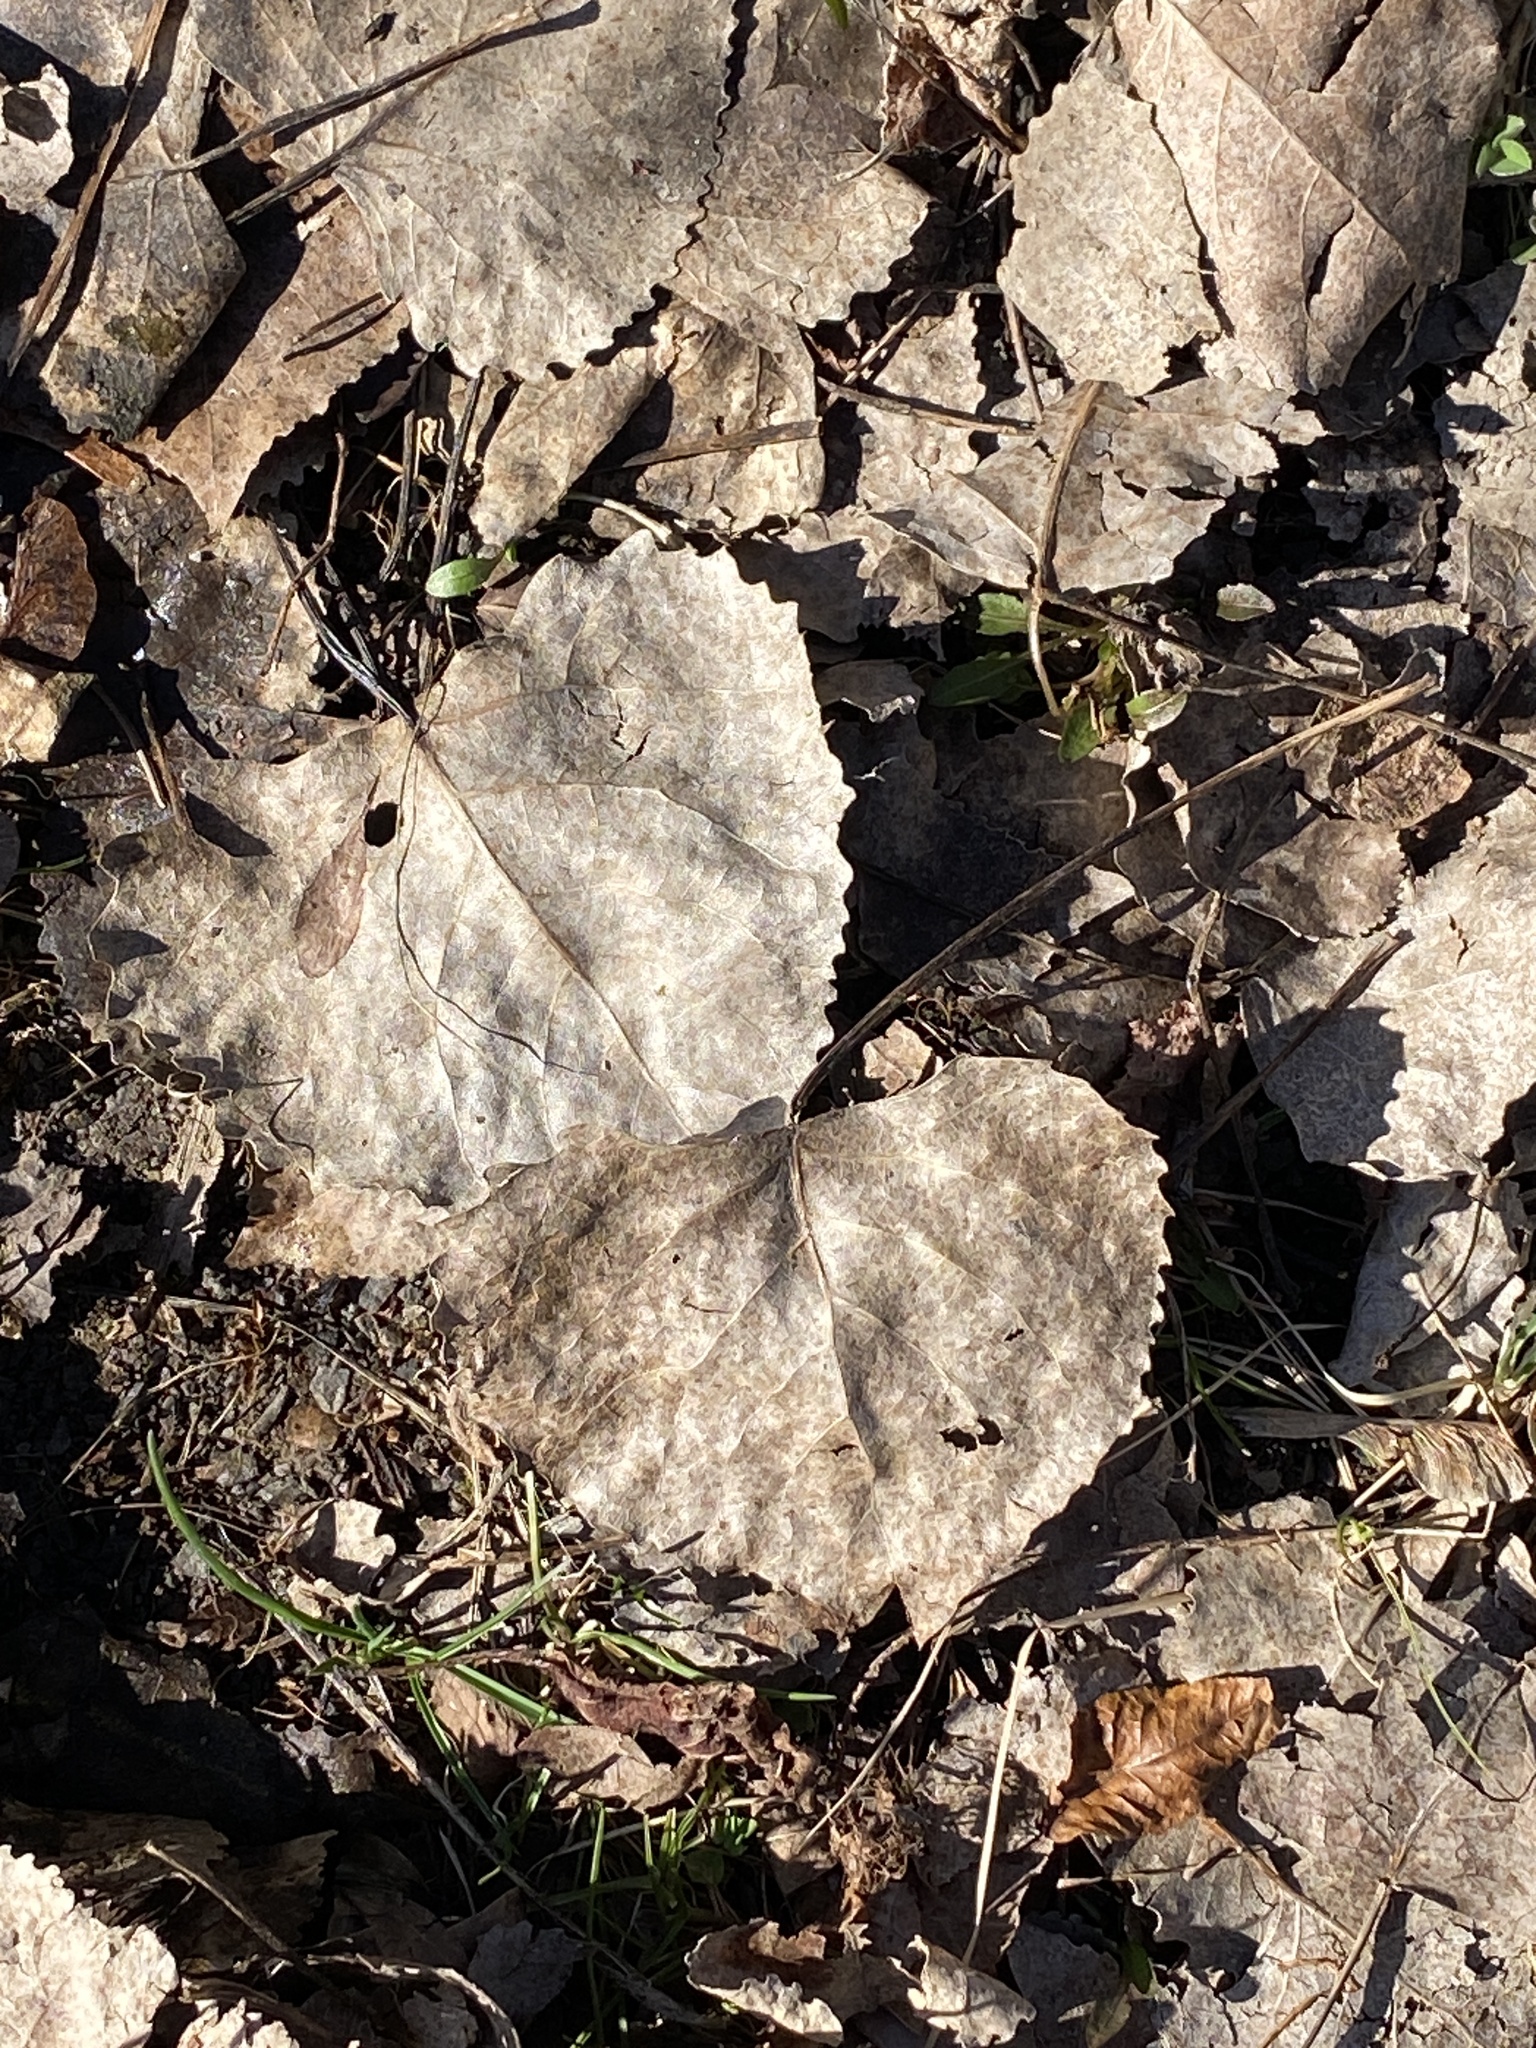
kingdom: Plantae
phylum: Tracheophyta
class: Magnoliopsida
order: Malpighiales
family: Salicaceae
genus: Populus
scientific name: Populus deltoides
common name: Eastern cottonwood
